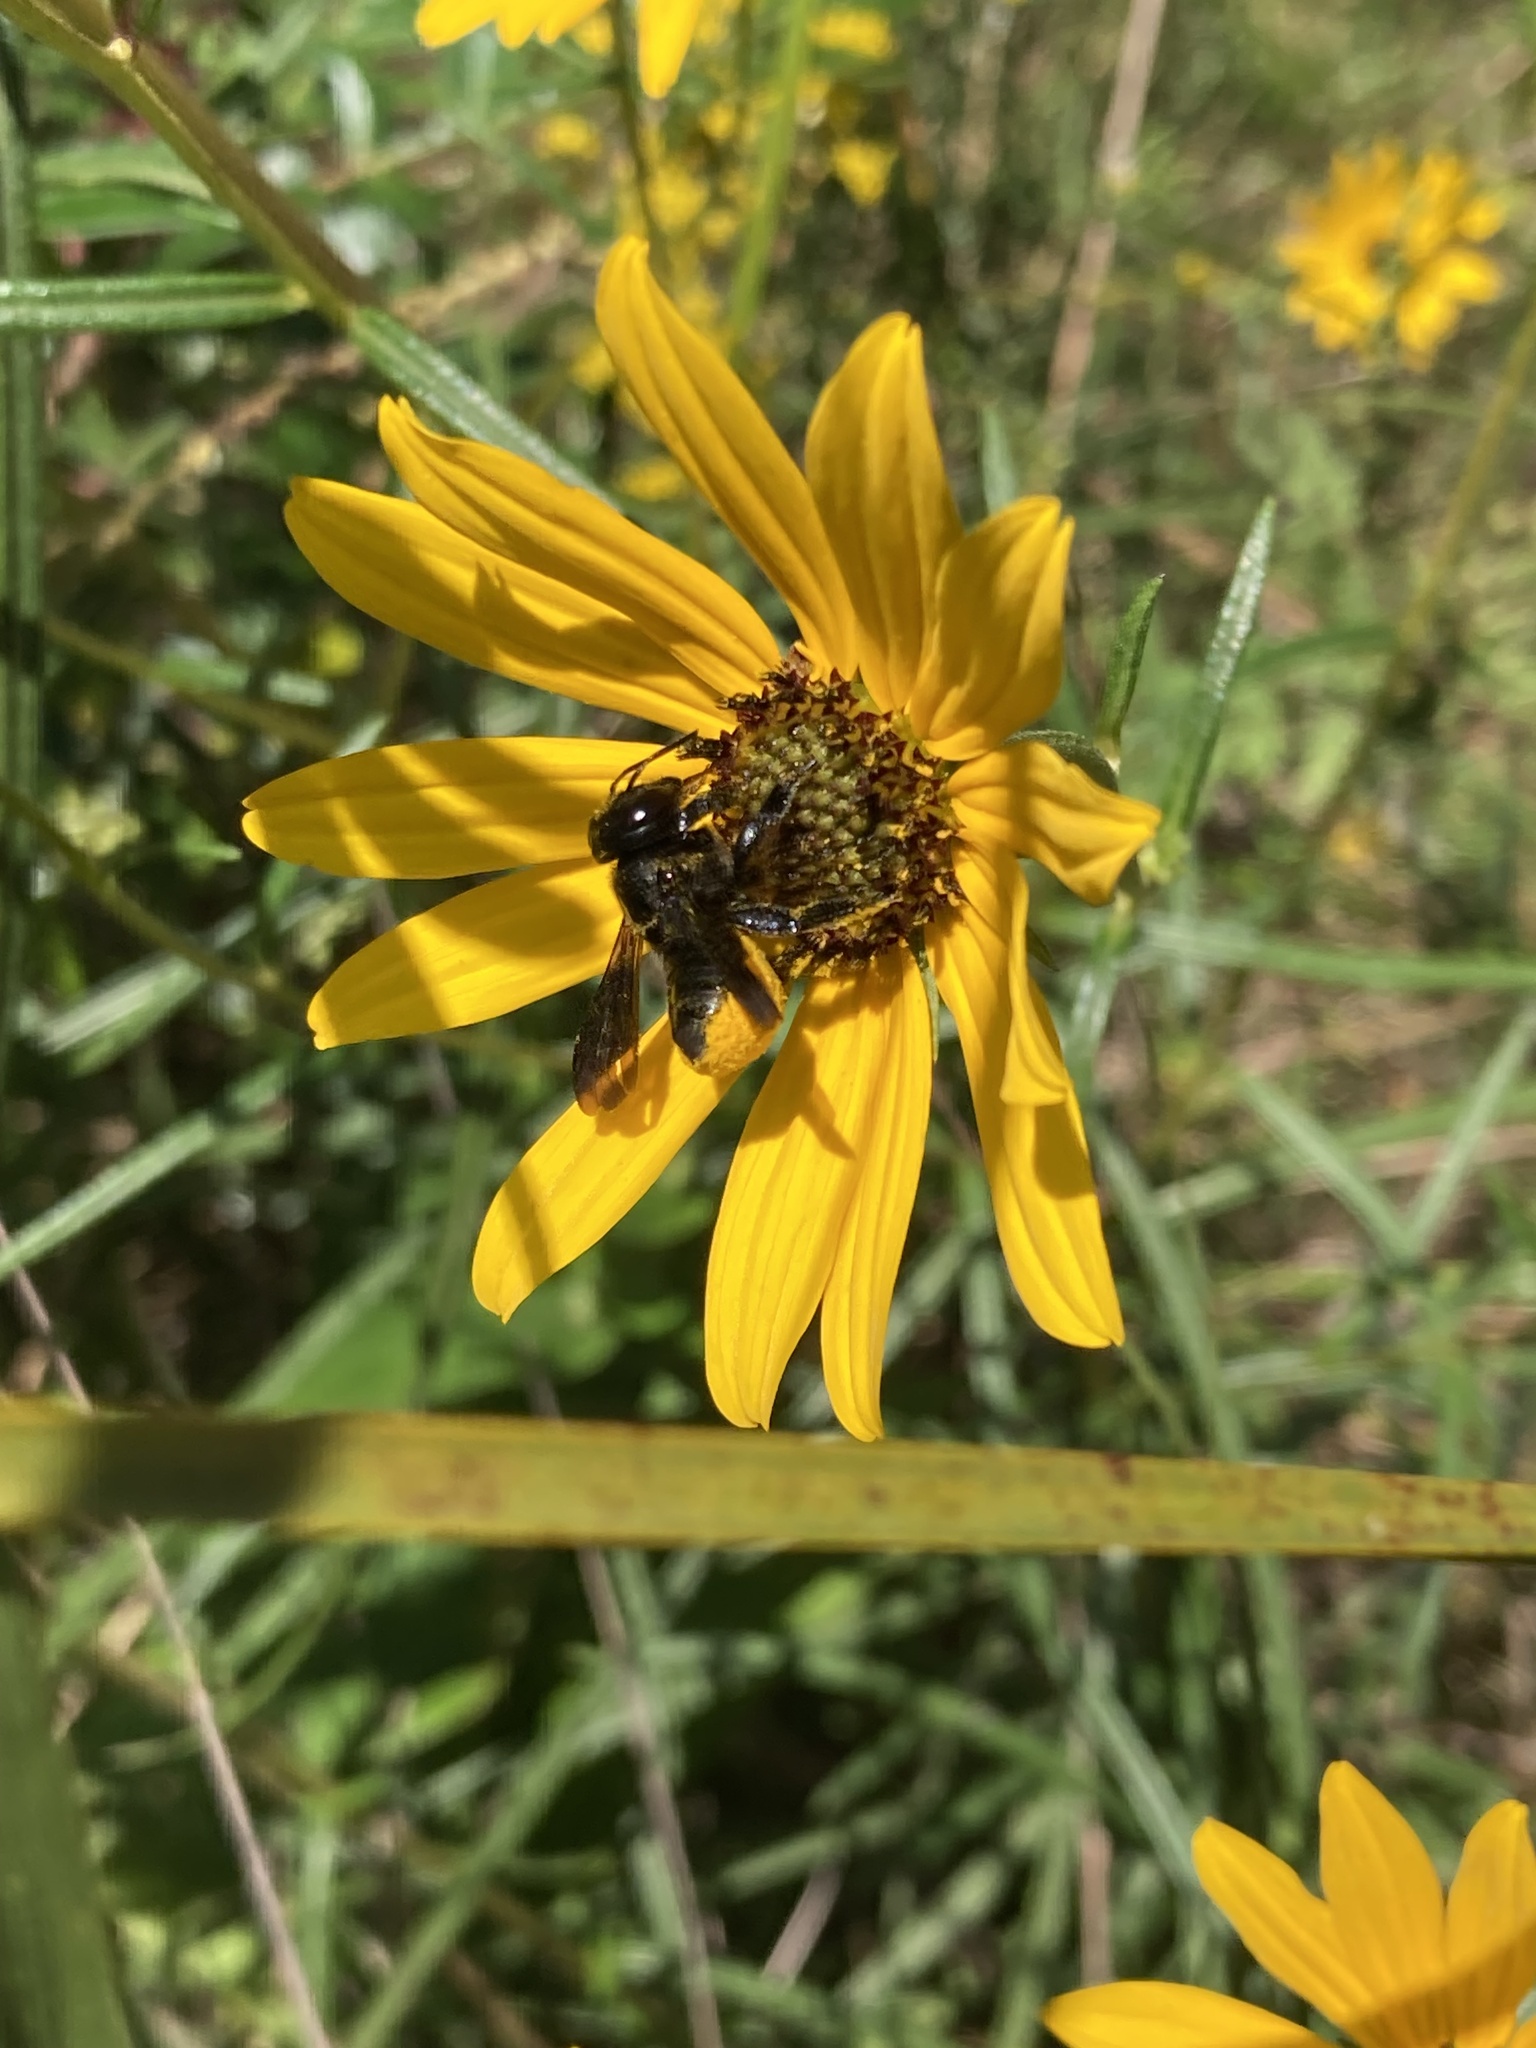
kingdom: Animalia
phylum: Arthropoda
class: Insecta
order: Hymenoptera
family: Megachilidae
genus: Megachile
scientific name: Megachile xylocopoides
